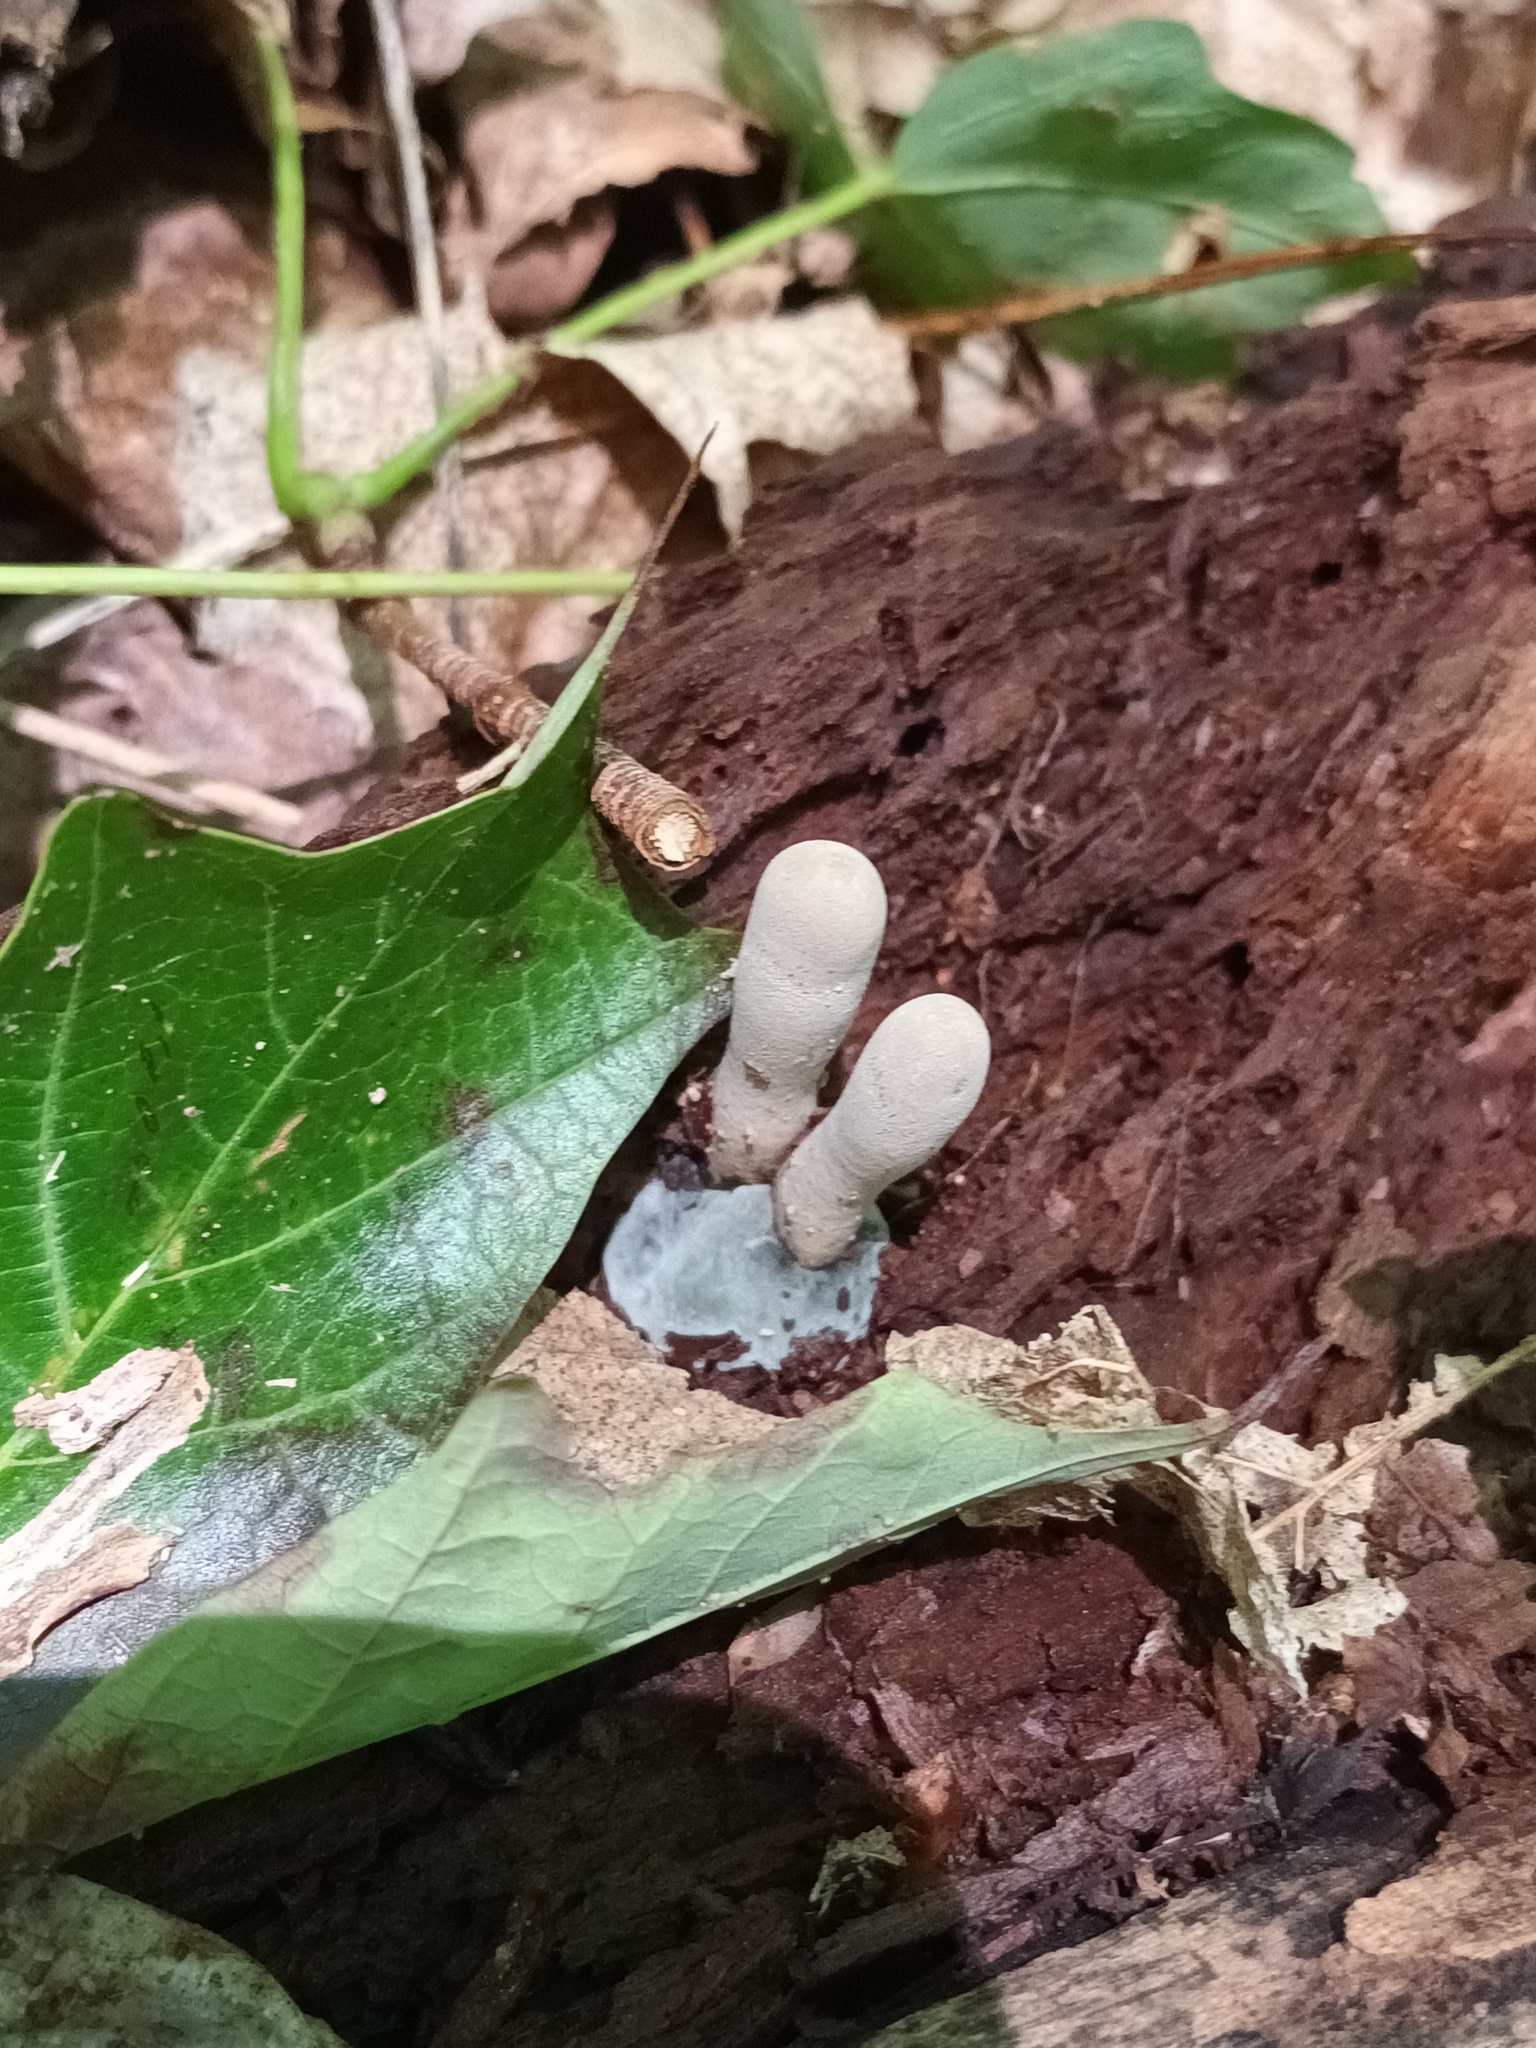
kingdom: Fungi
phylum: Ascomycota
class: Sordariomycetes
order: Xylariales
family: Xylariaceae
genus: Xylaria
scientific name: Xylaria polymorpha
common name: Dead man's fingers
